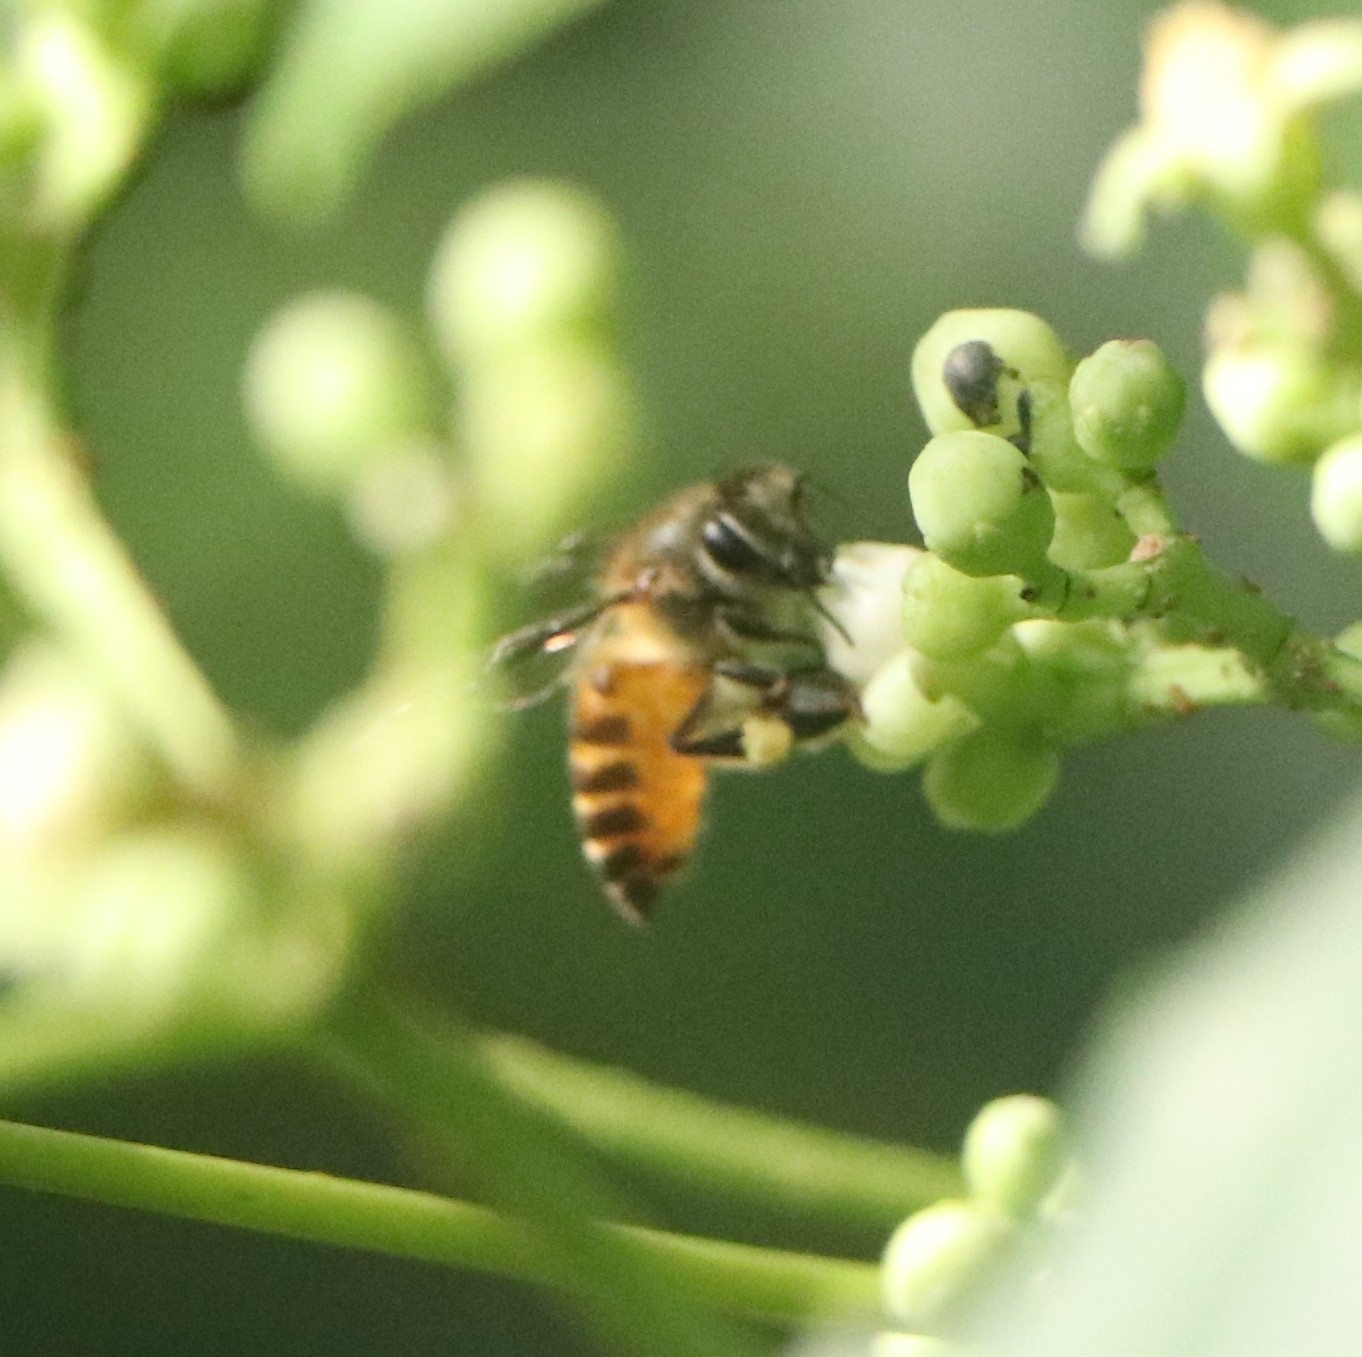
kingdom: Animalia
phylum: Arthropoda
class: Insecta
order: Hymenoptera
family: Apidae
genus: Apis
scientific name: Apis cerana
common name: Honey bee
